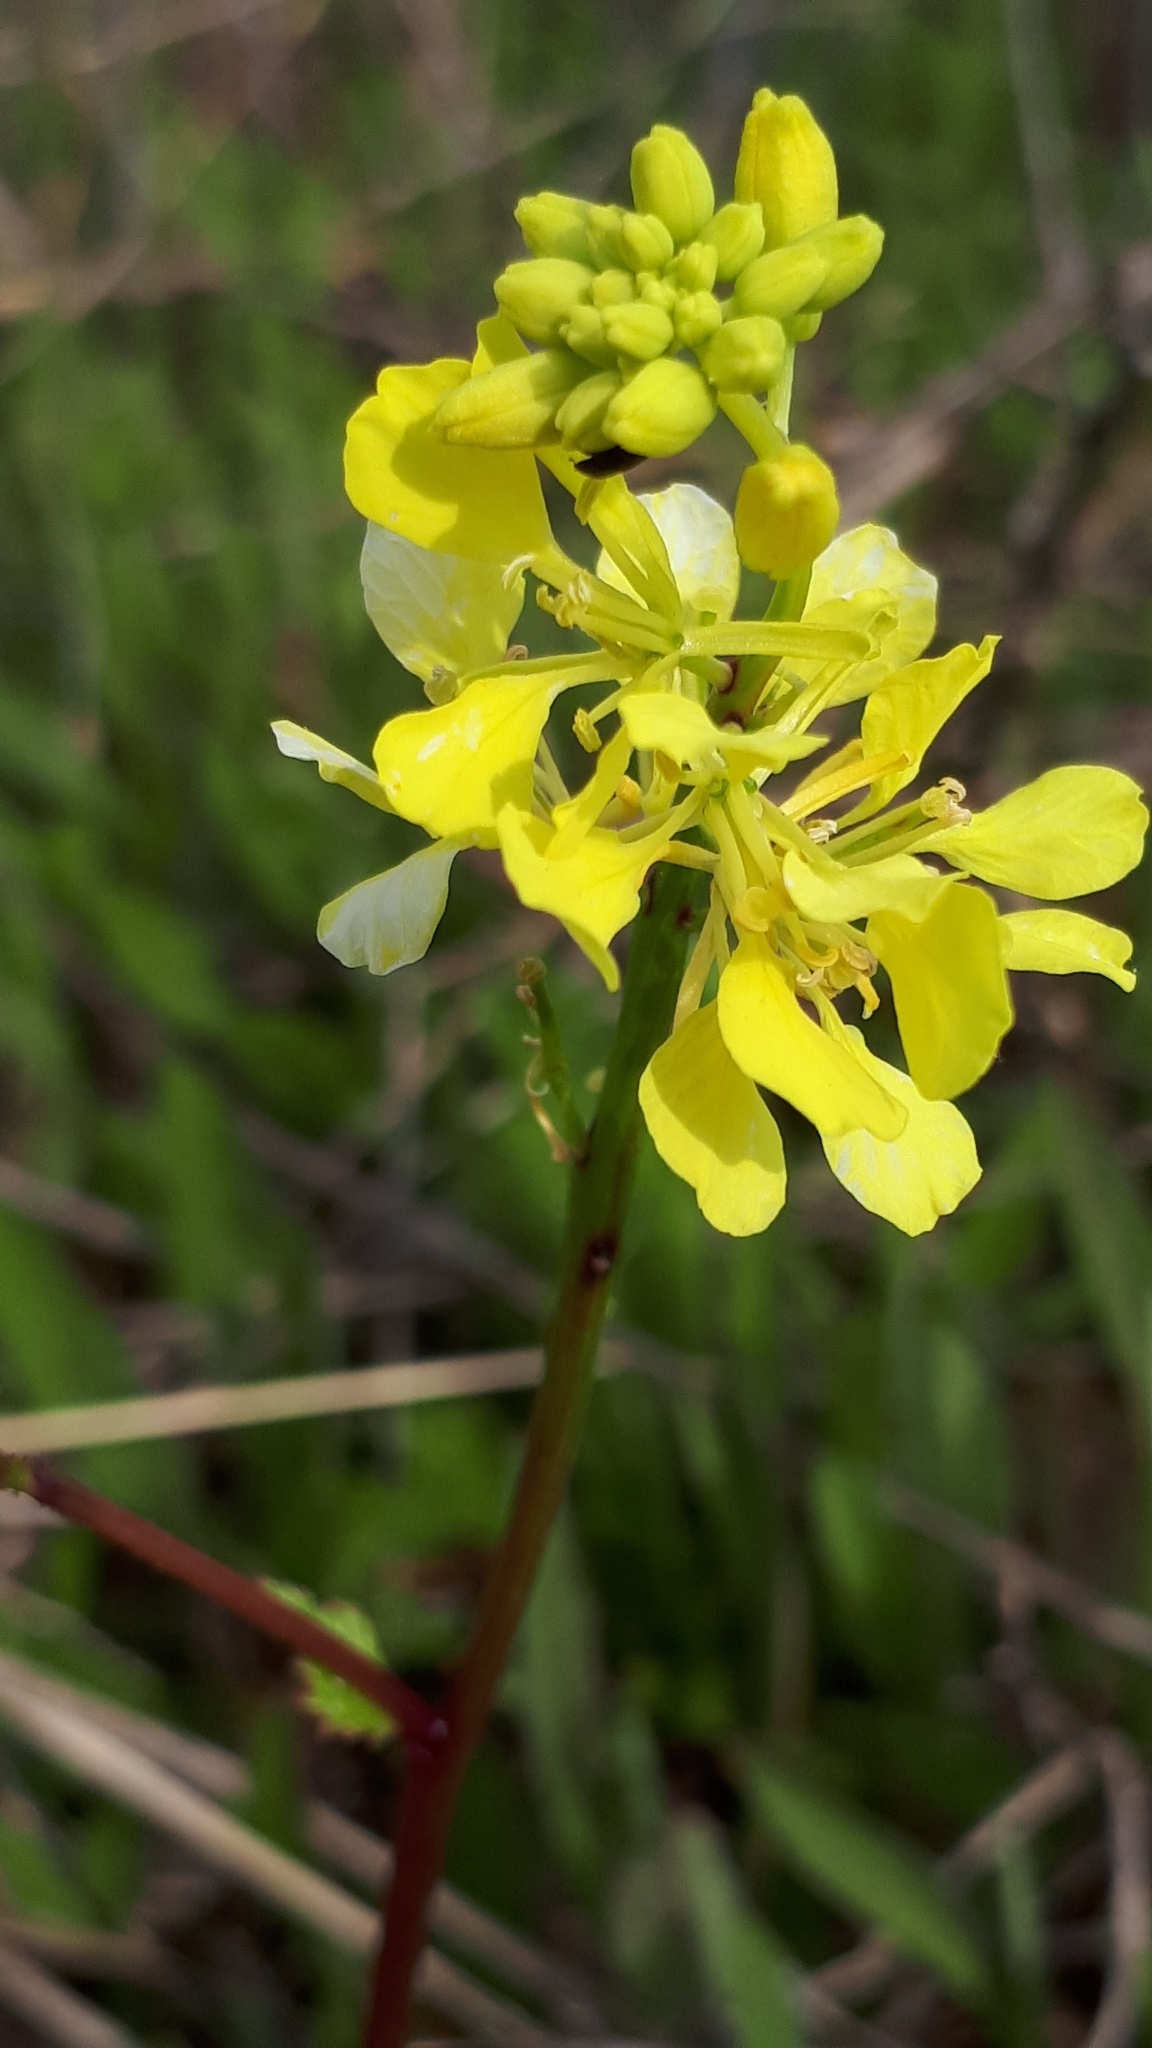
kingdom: Plantae
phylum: Tracheophyta
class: Magnoliopsida
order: Brassicales
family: Brassicaceae
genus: Sinapis
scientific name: Sinapis arvensis
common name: Charlock
